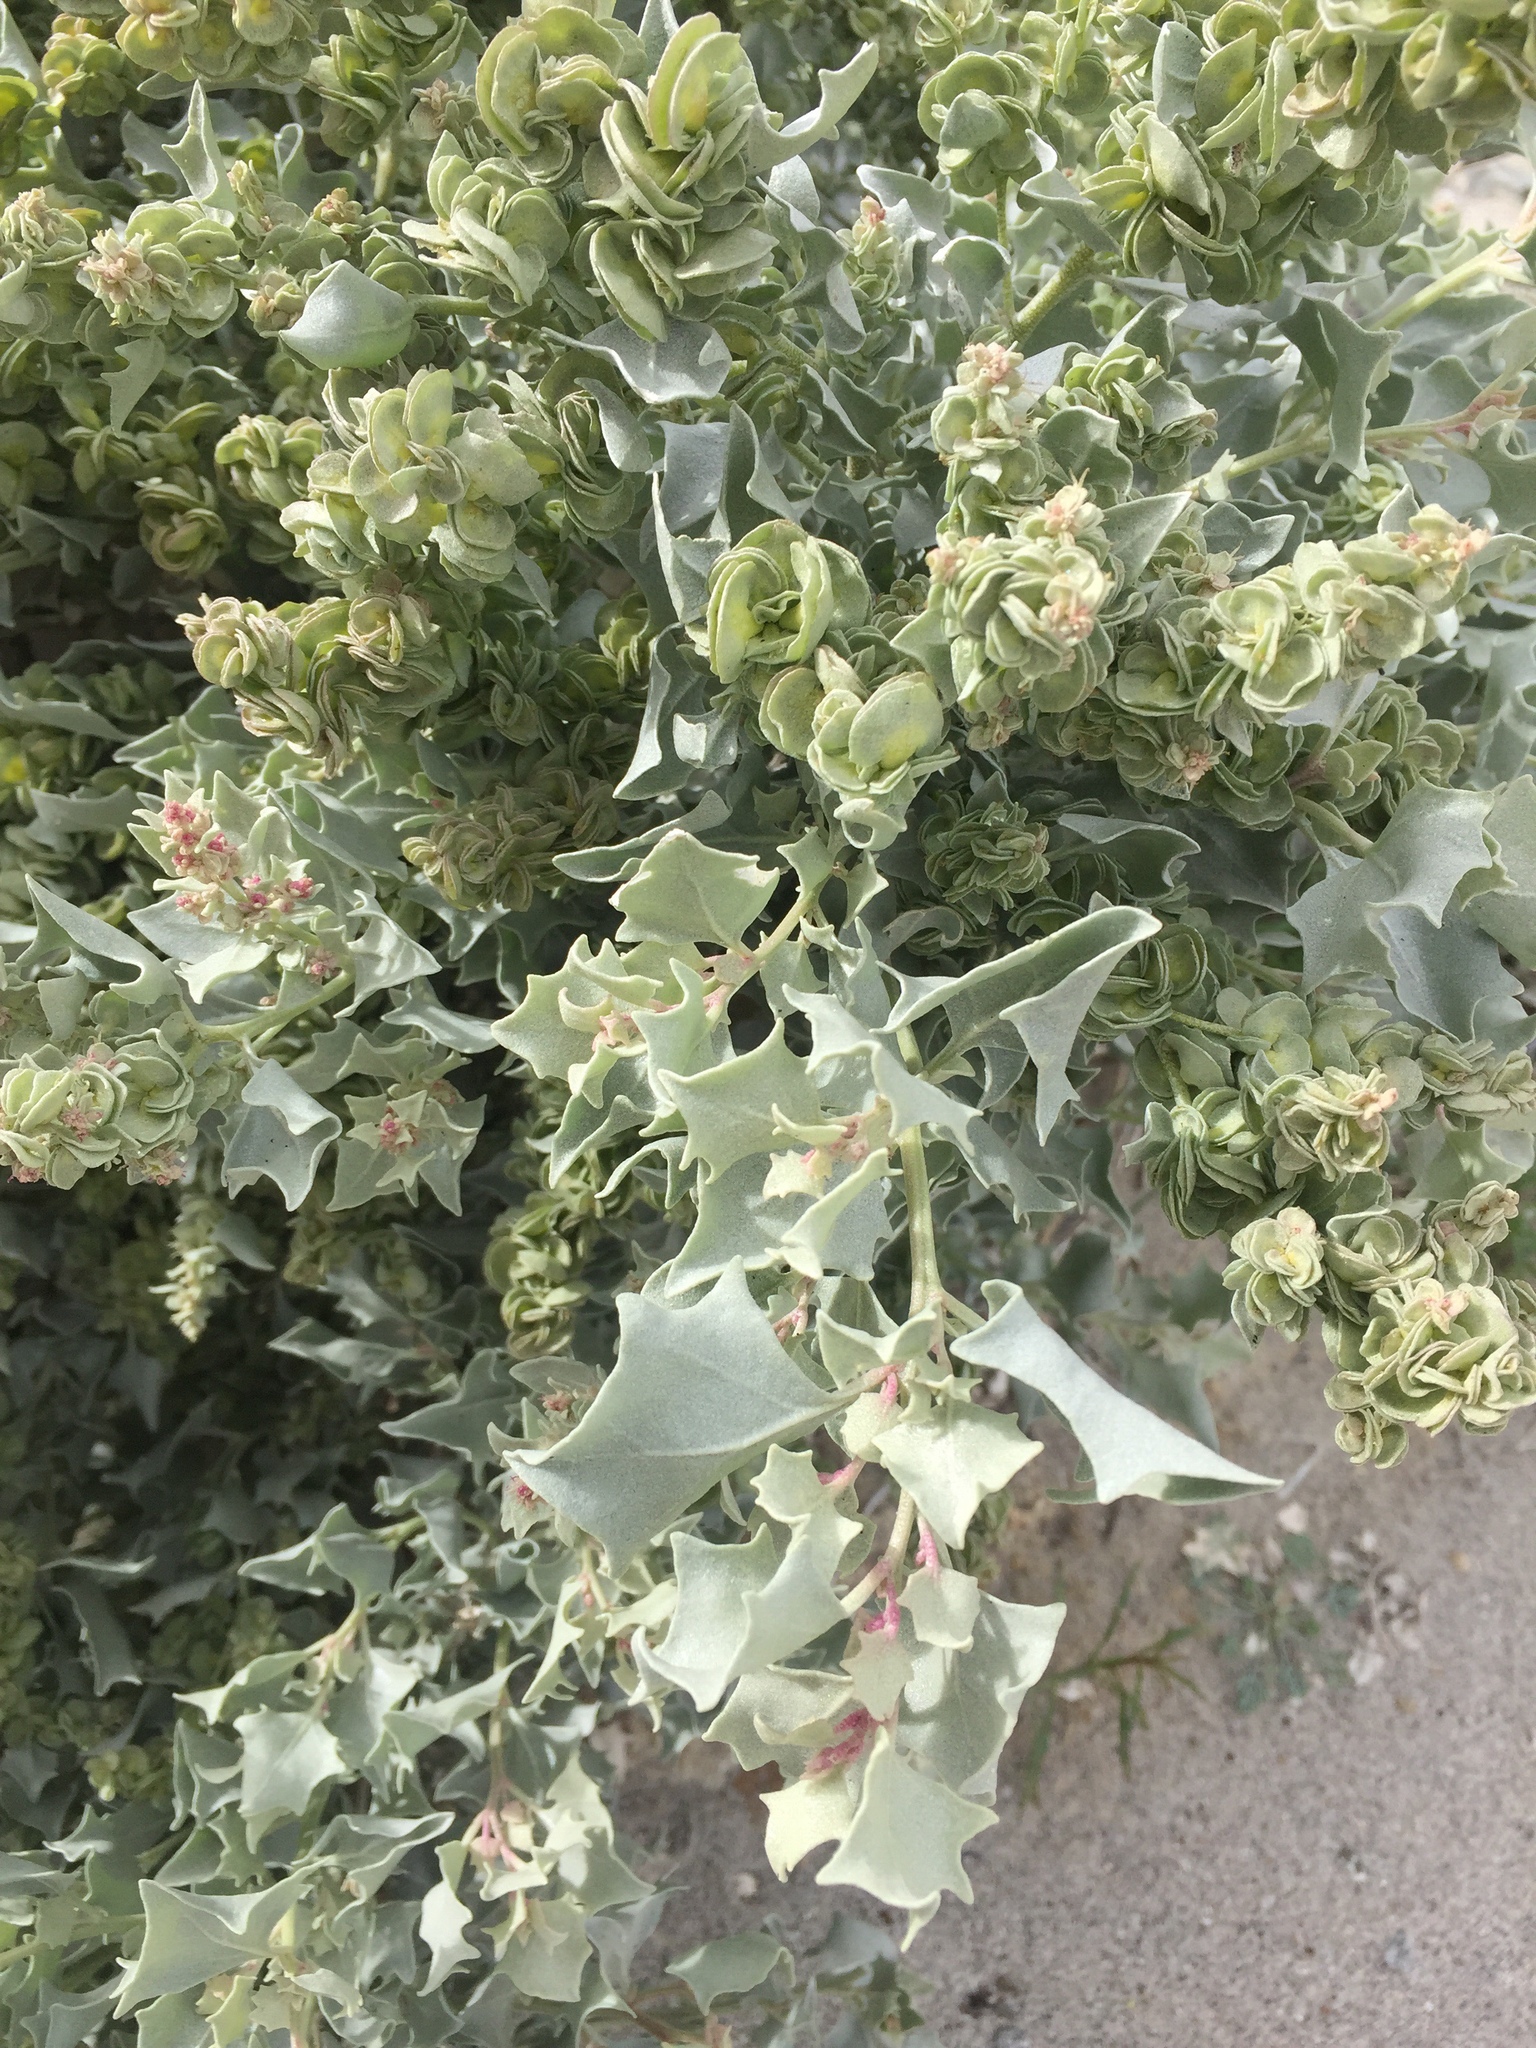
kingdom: Plantae
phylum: Tracheophyta
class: Magnoliopsida
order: Caryophyllales
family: Amaranthaceae
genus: Atriplex
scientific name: Atriplex hymenelytra
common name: Desert-holly
